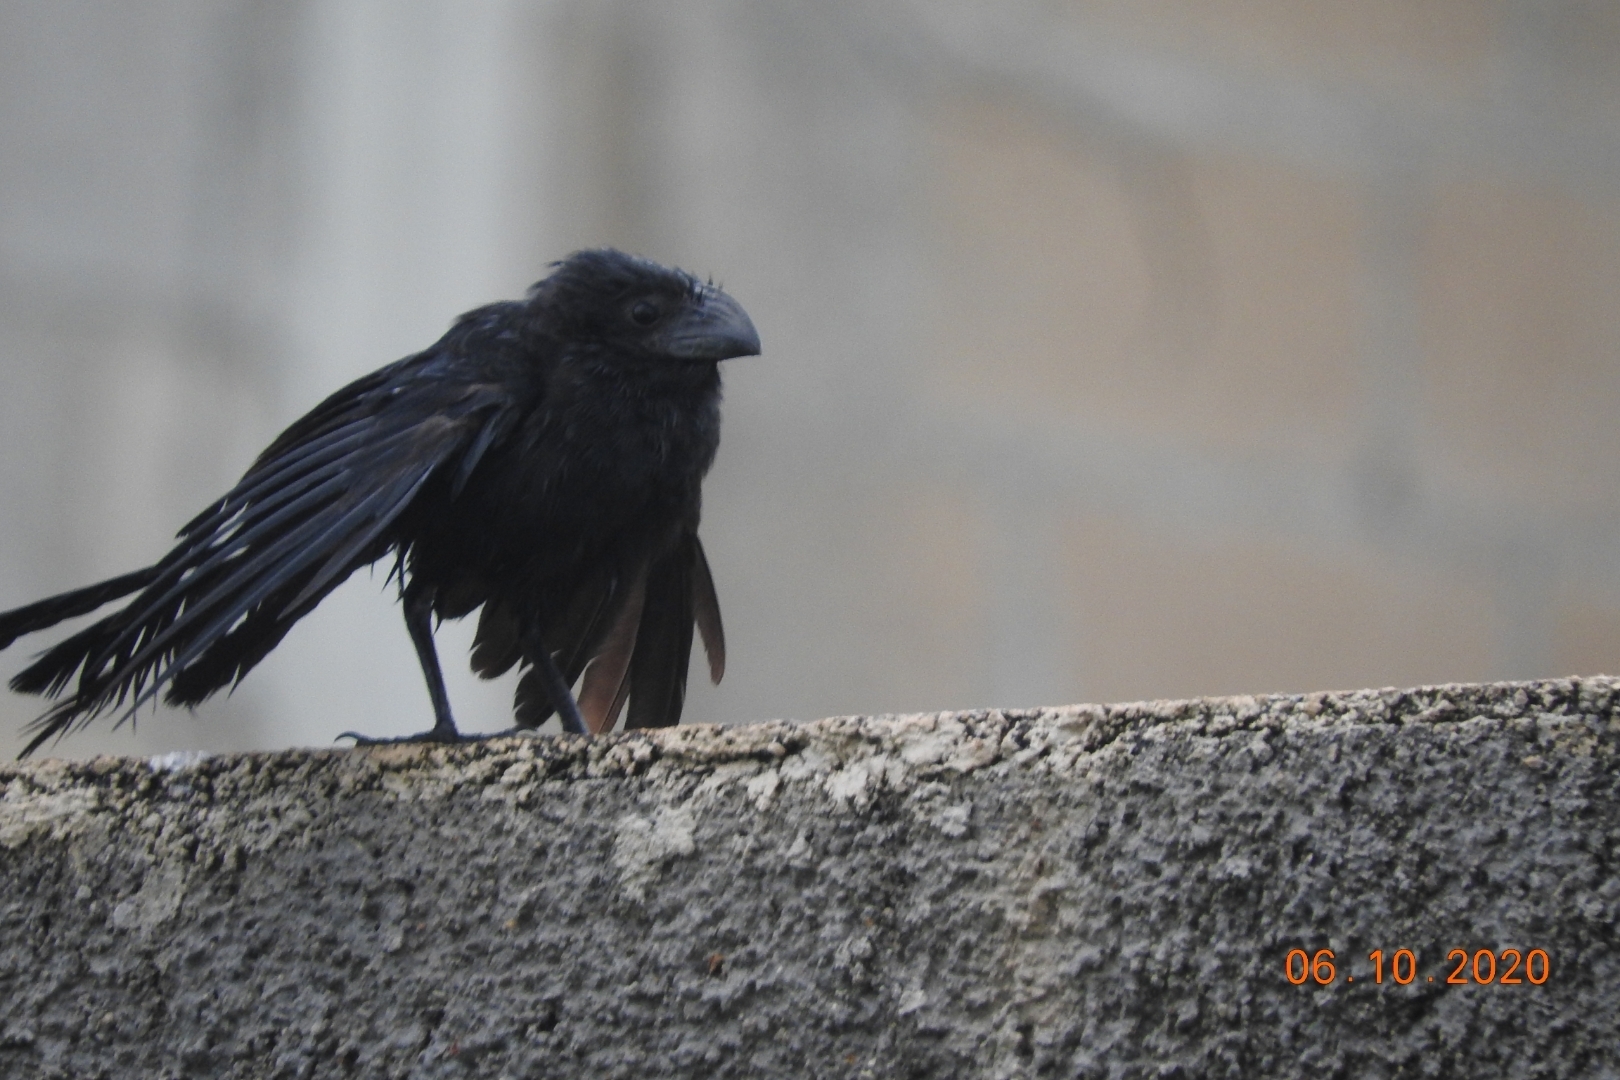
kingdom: Animalia
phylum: Chordata
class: Aves
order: Cuculiformes
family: Cuculidae
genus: Crotophaga
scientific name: Crotophaga sulcirostris
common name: Groove-billed ani
